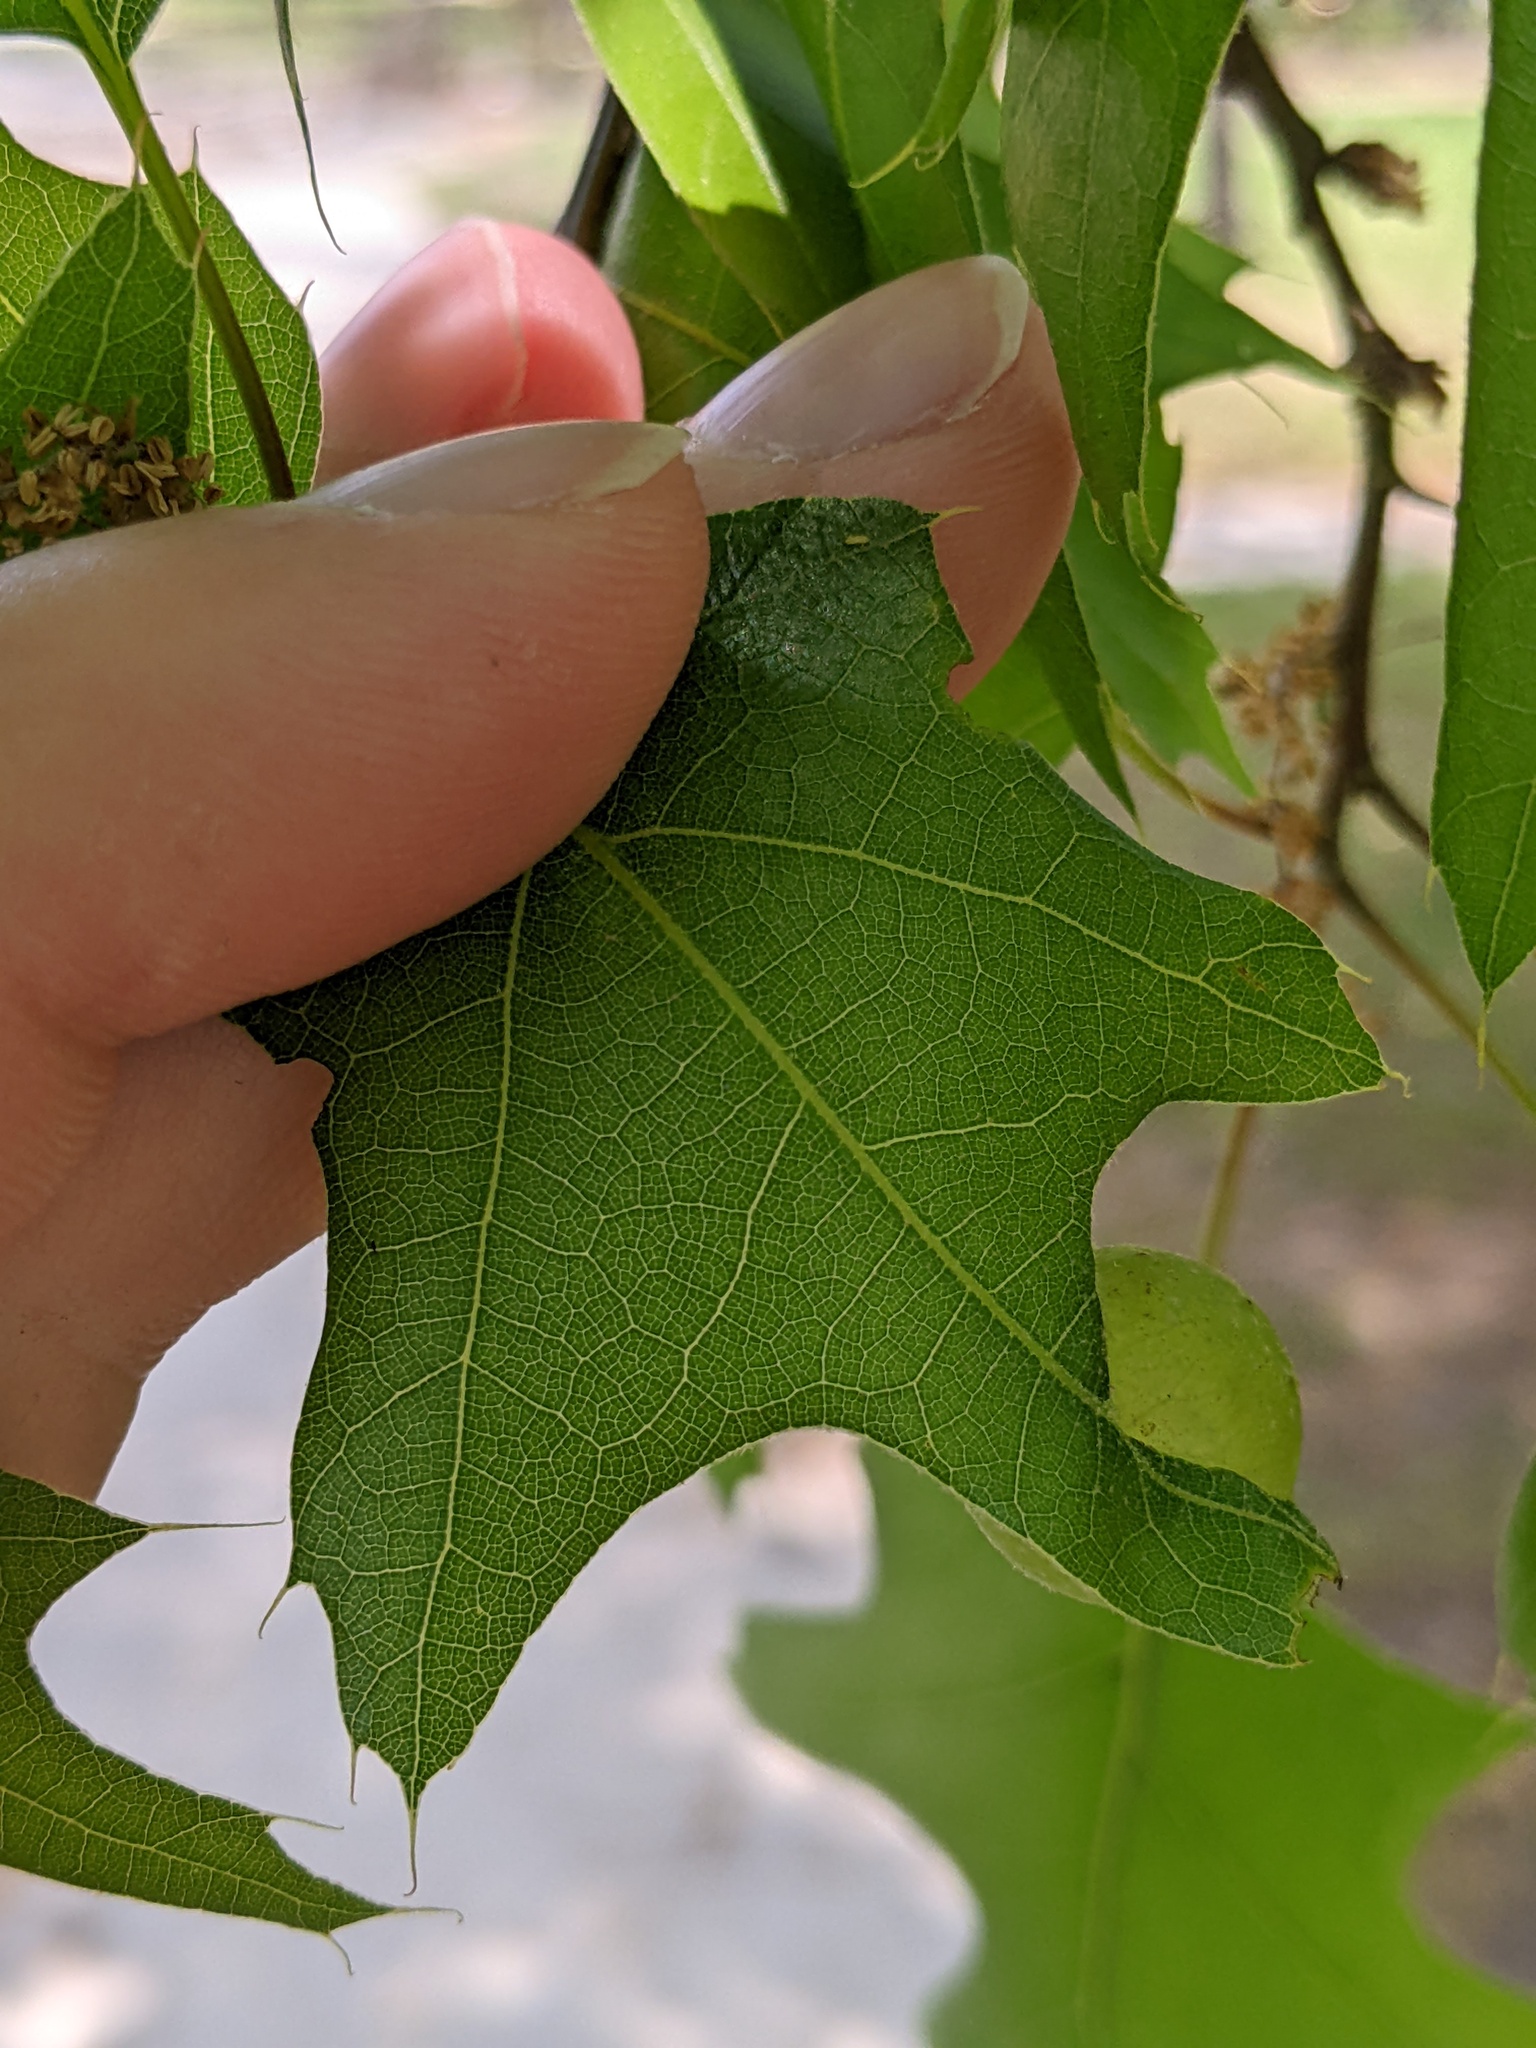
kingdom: Animalia
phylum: Arthropoda
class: Insecta
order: Hymenoptera
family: Cynipidae
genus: Dryocosmus
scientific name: Dryocosmus quercuspalustris
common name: Succulent oak gall wasp
